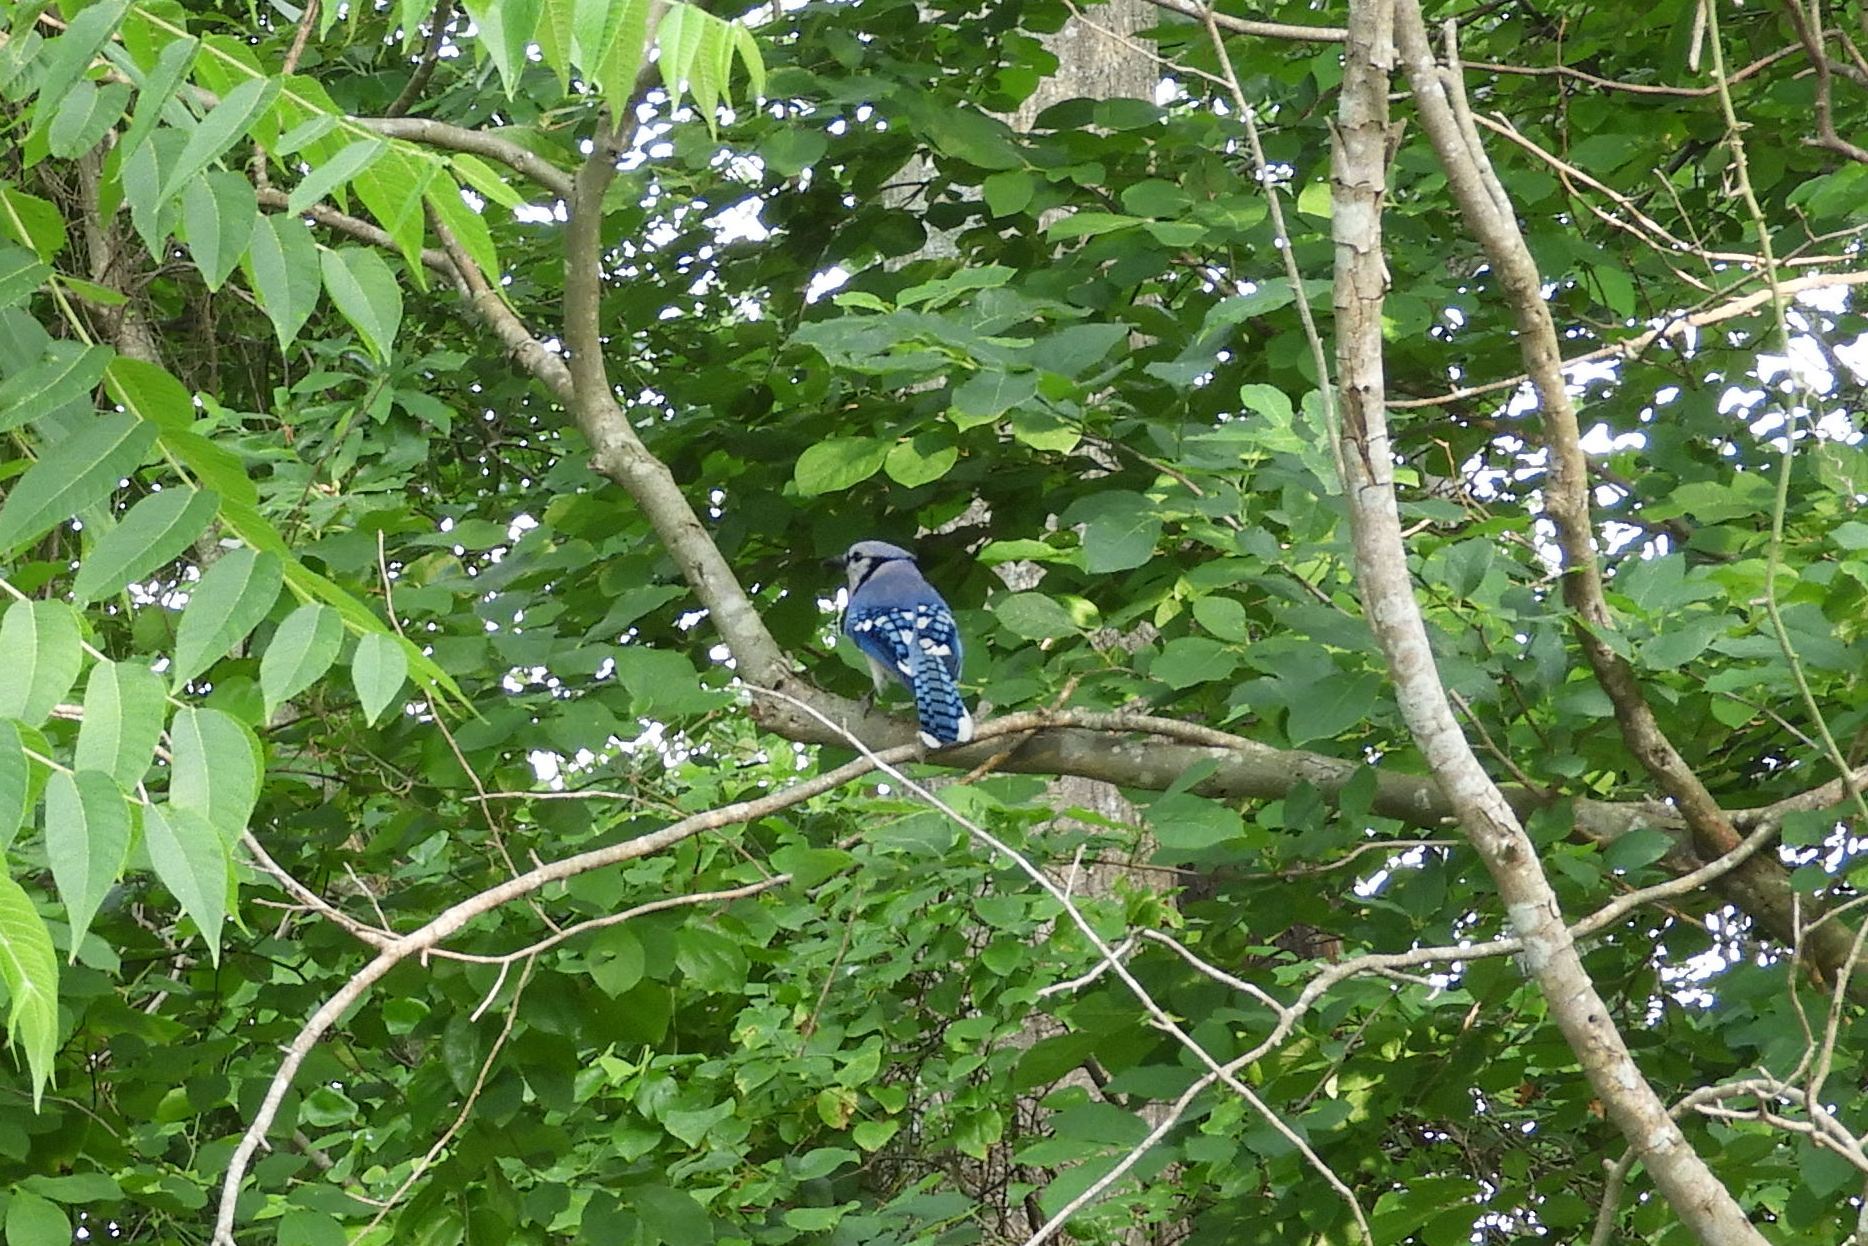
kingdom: Animalia
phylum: Chordata
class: Aves
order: Passeriformes
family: Corvidae
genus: Cyanocitta
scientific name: Cyanocitta cristata
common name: Blue jay
